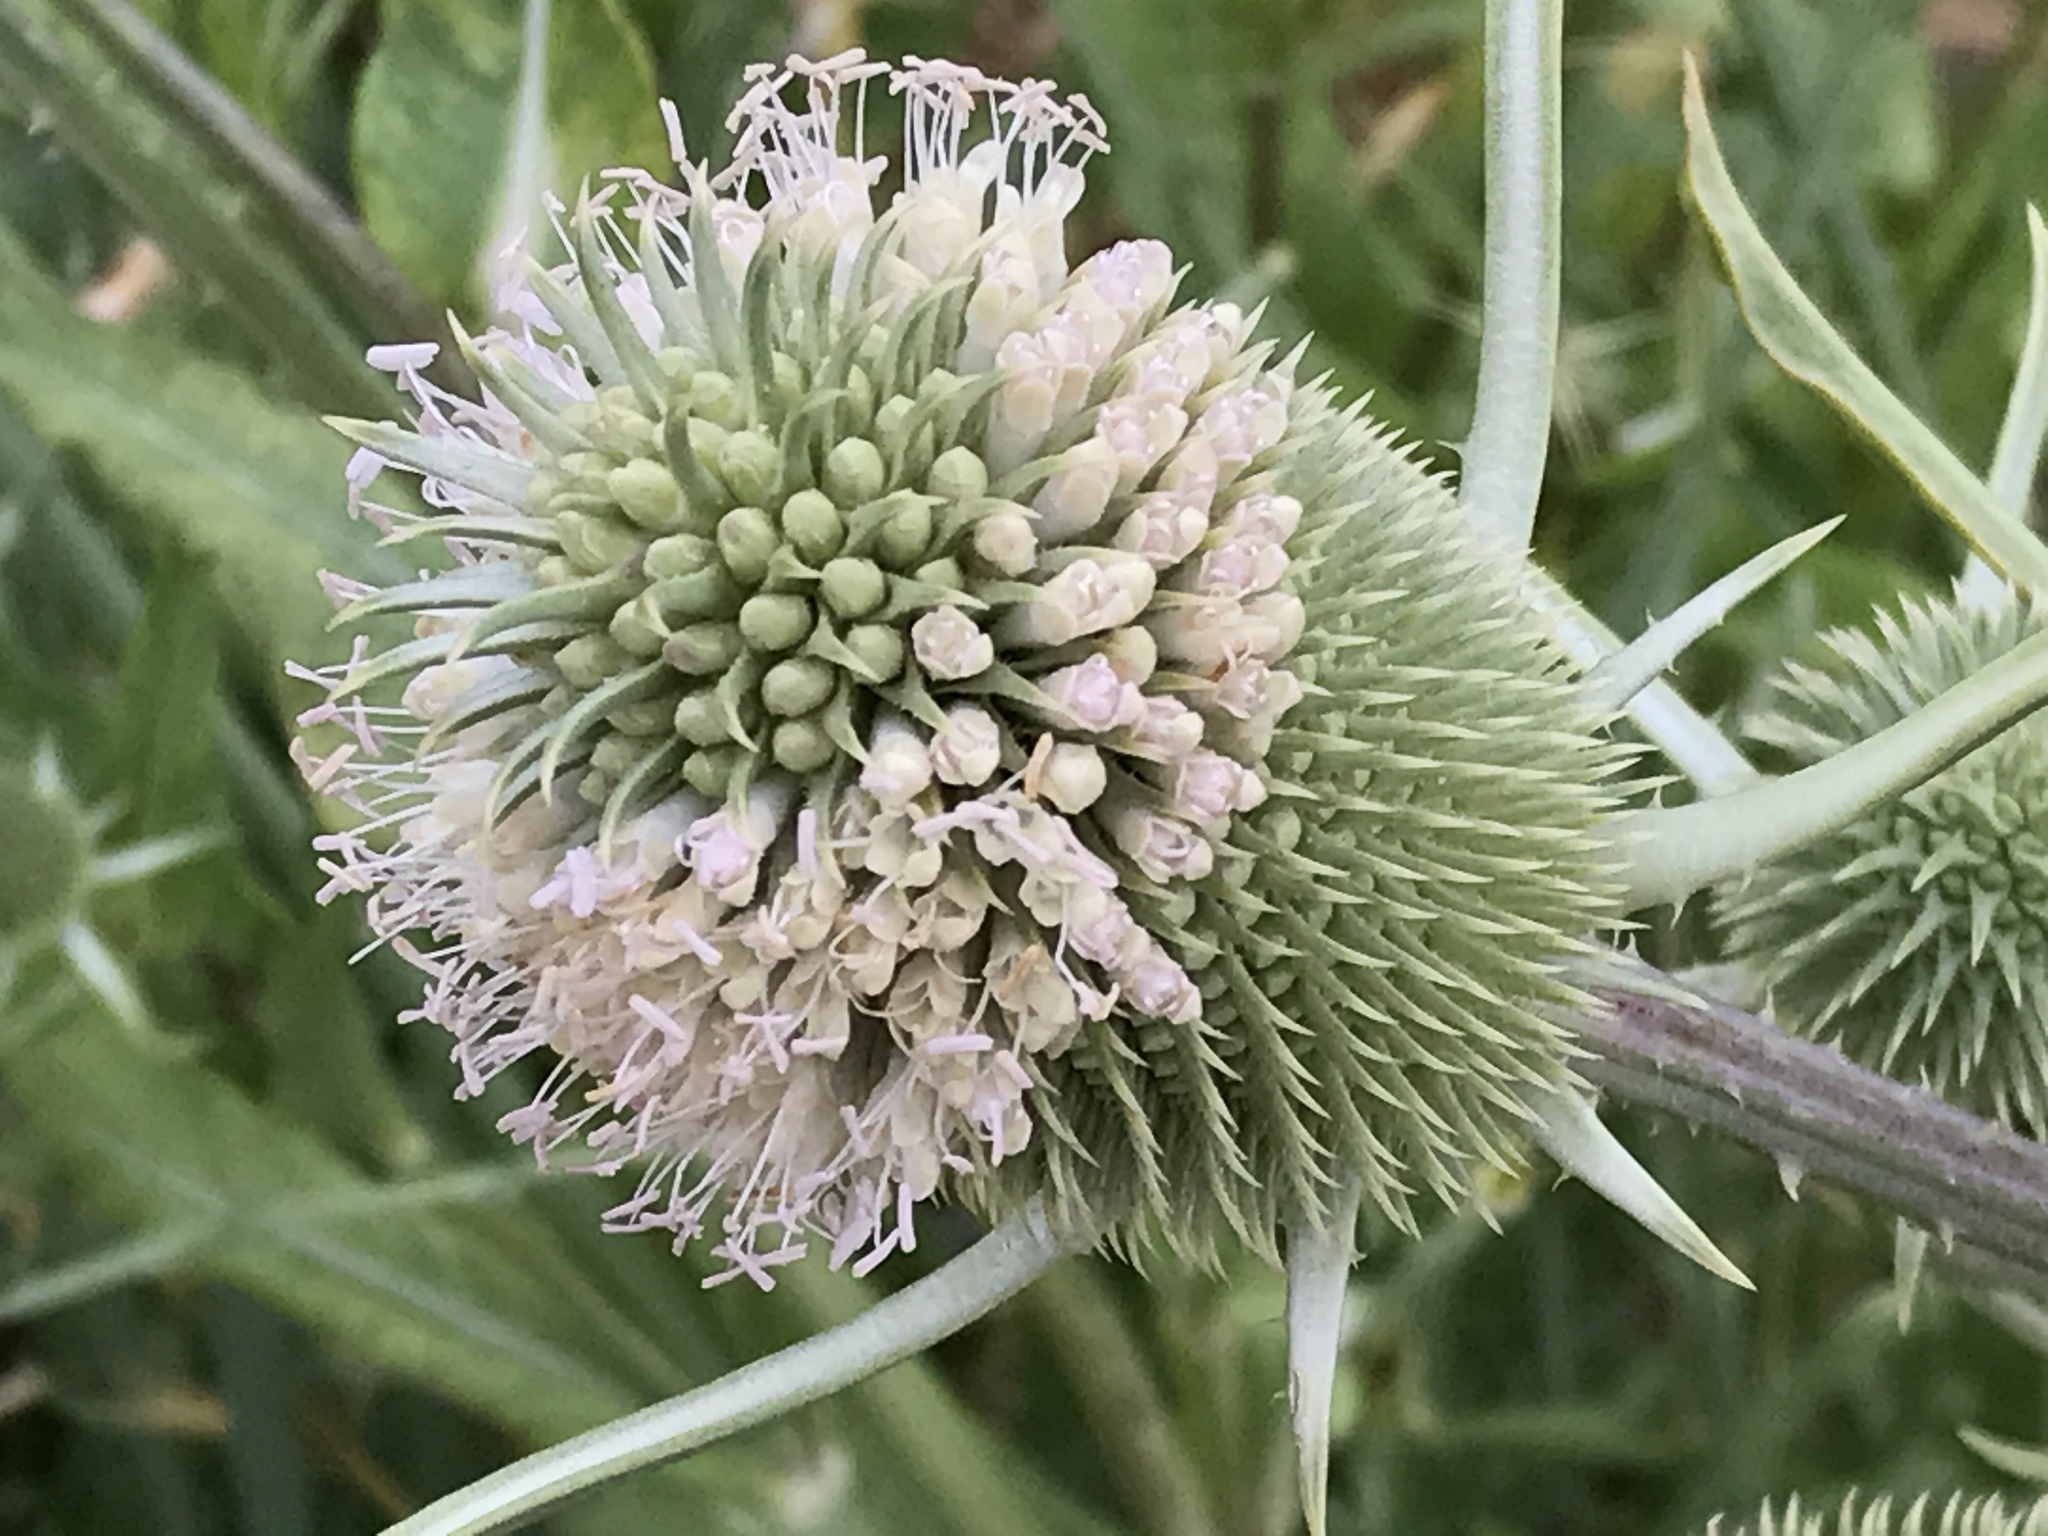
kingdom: Plantae
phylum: Tracheophyta
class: Magnoliopsida
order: Dipsacales
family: Caprifoliaceae
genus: Dipsacus
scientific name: Dipsacus sativus
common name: Fuller's teasel
